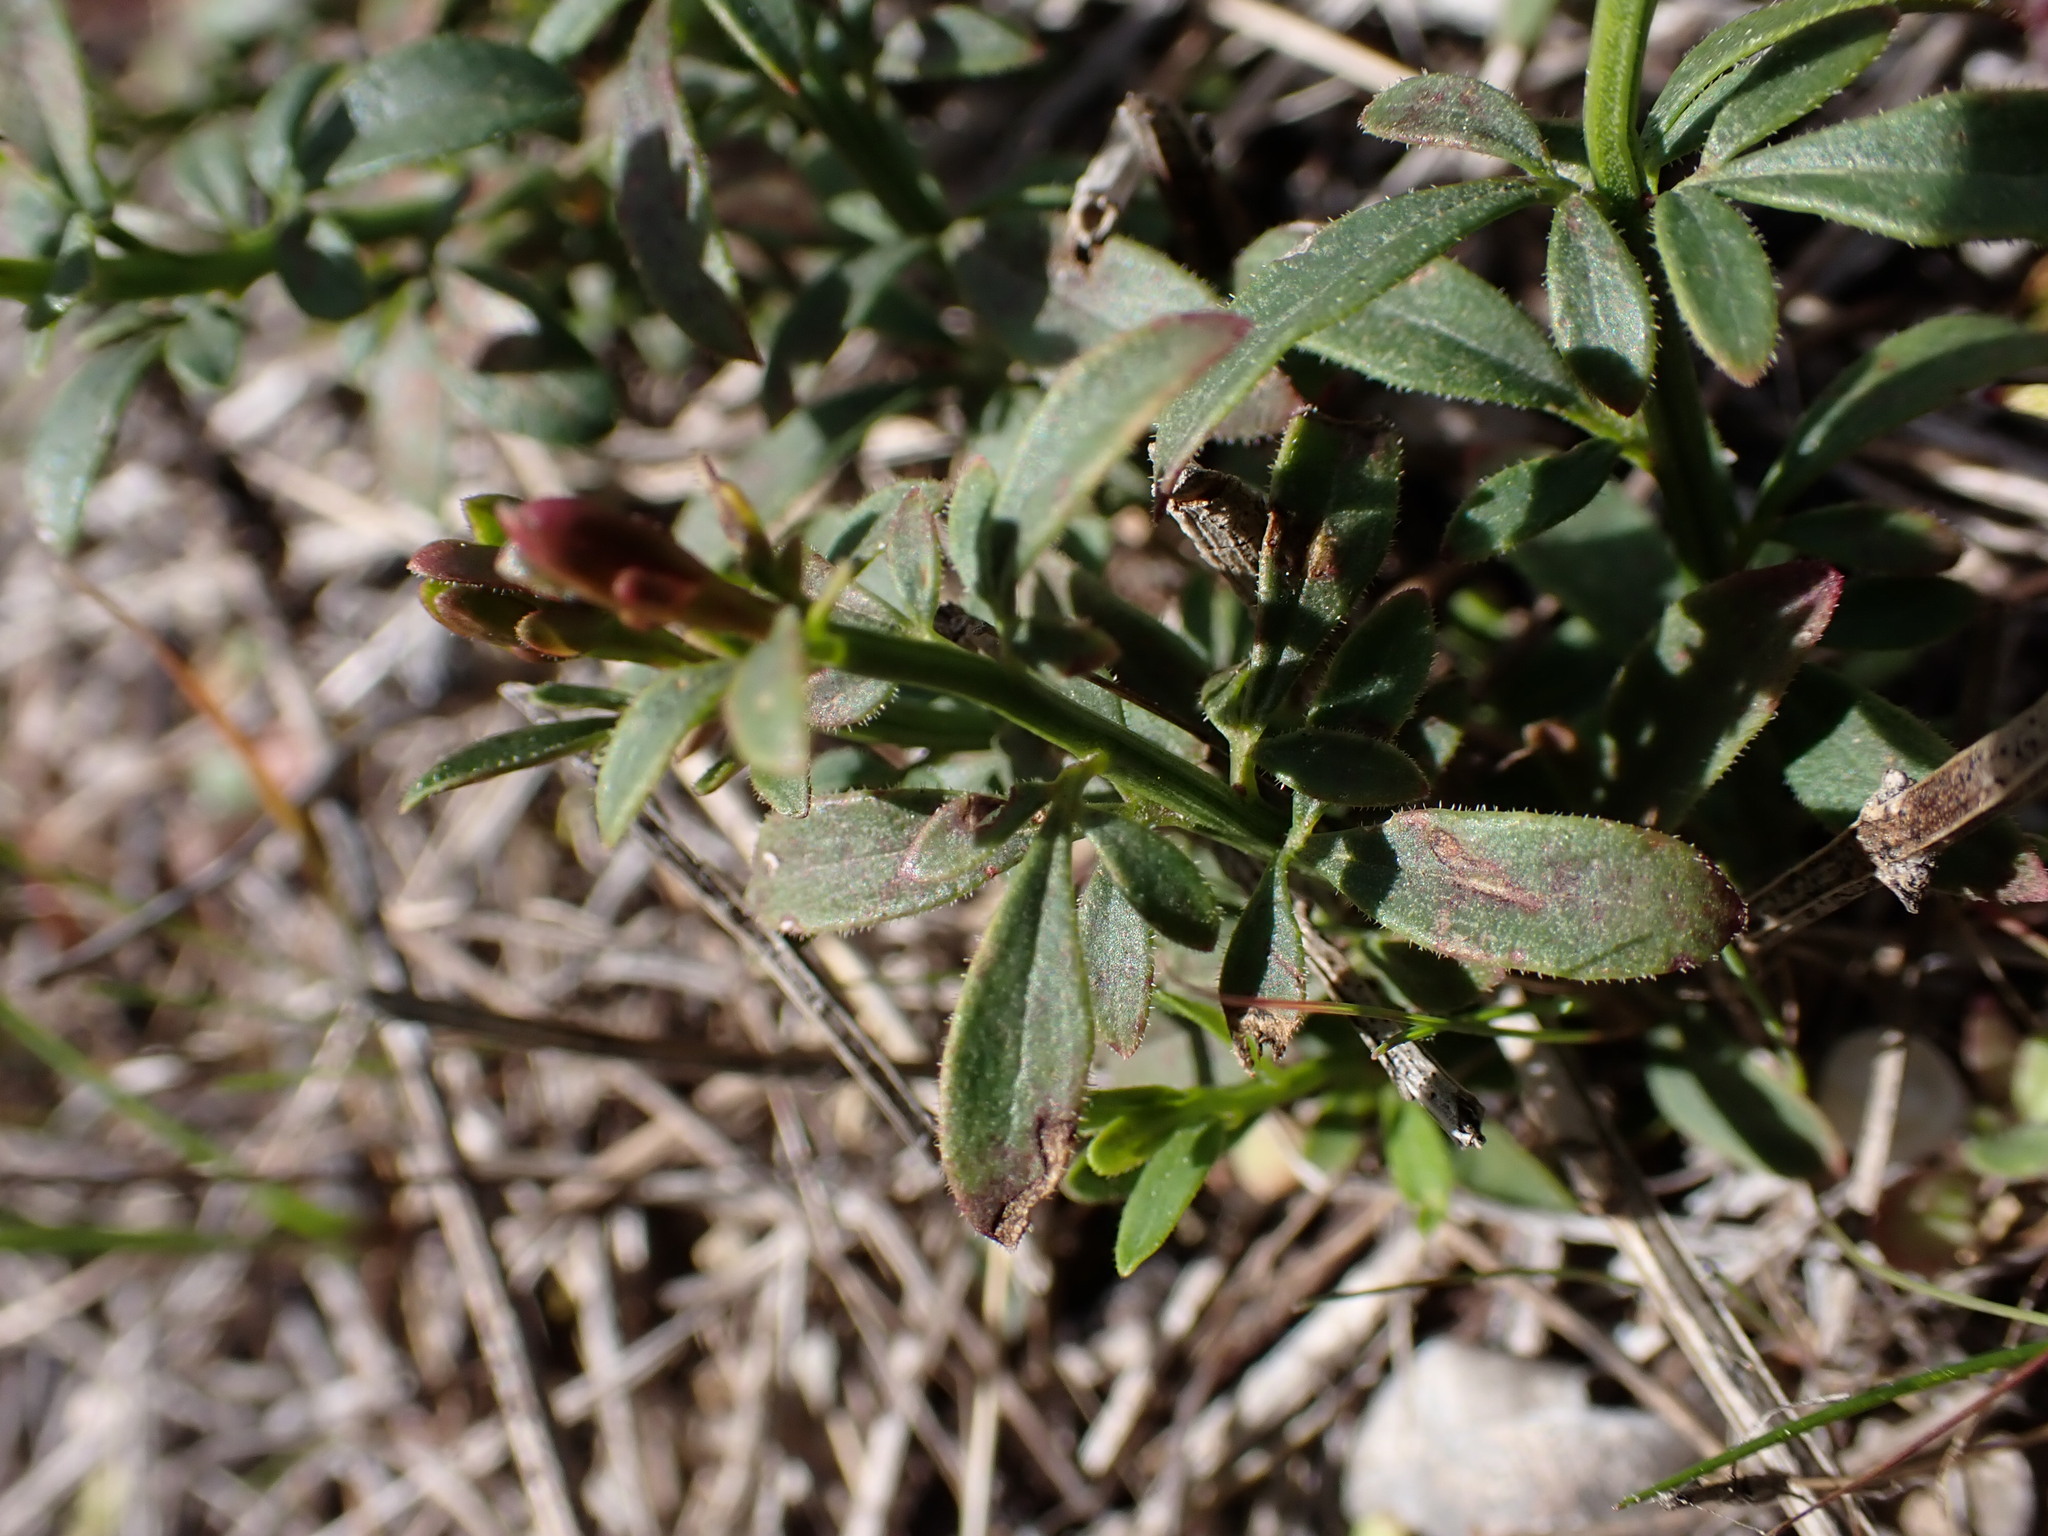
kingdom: Plantae
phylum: Tracheophyta
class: Magnoliopsida
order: Lamiales
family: Oleaceae
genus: Chrysojasminum
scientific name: Chrysojasminum fruticans
